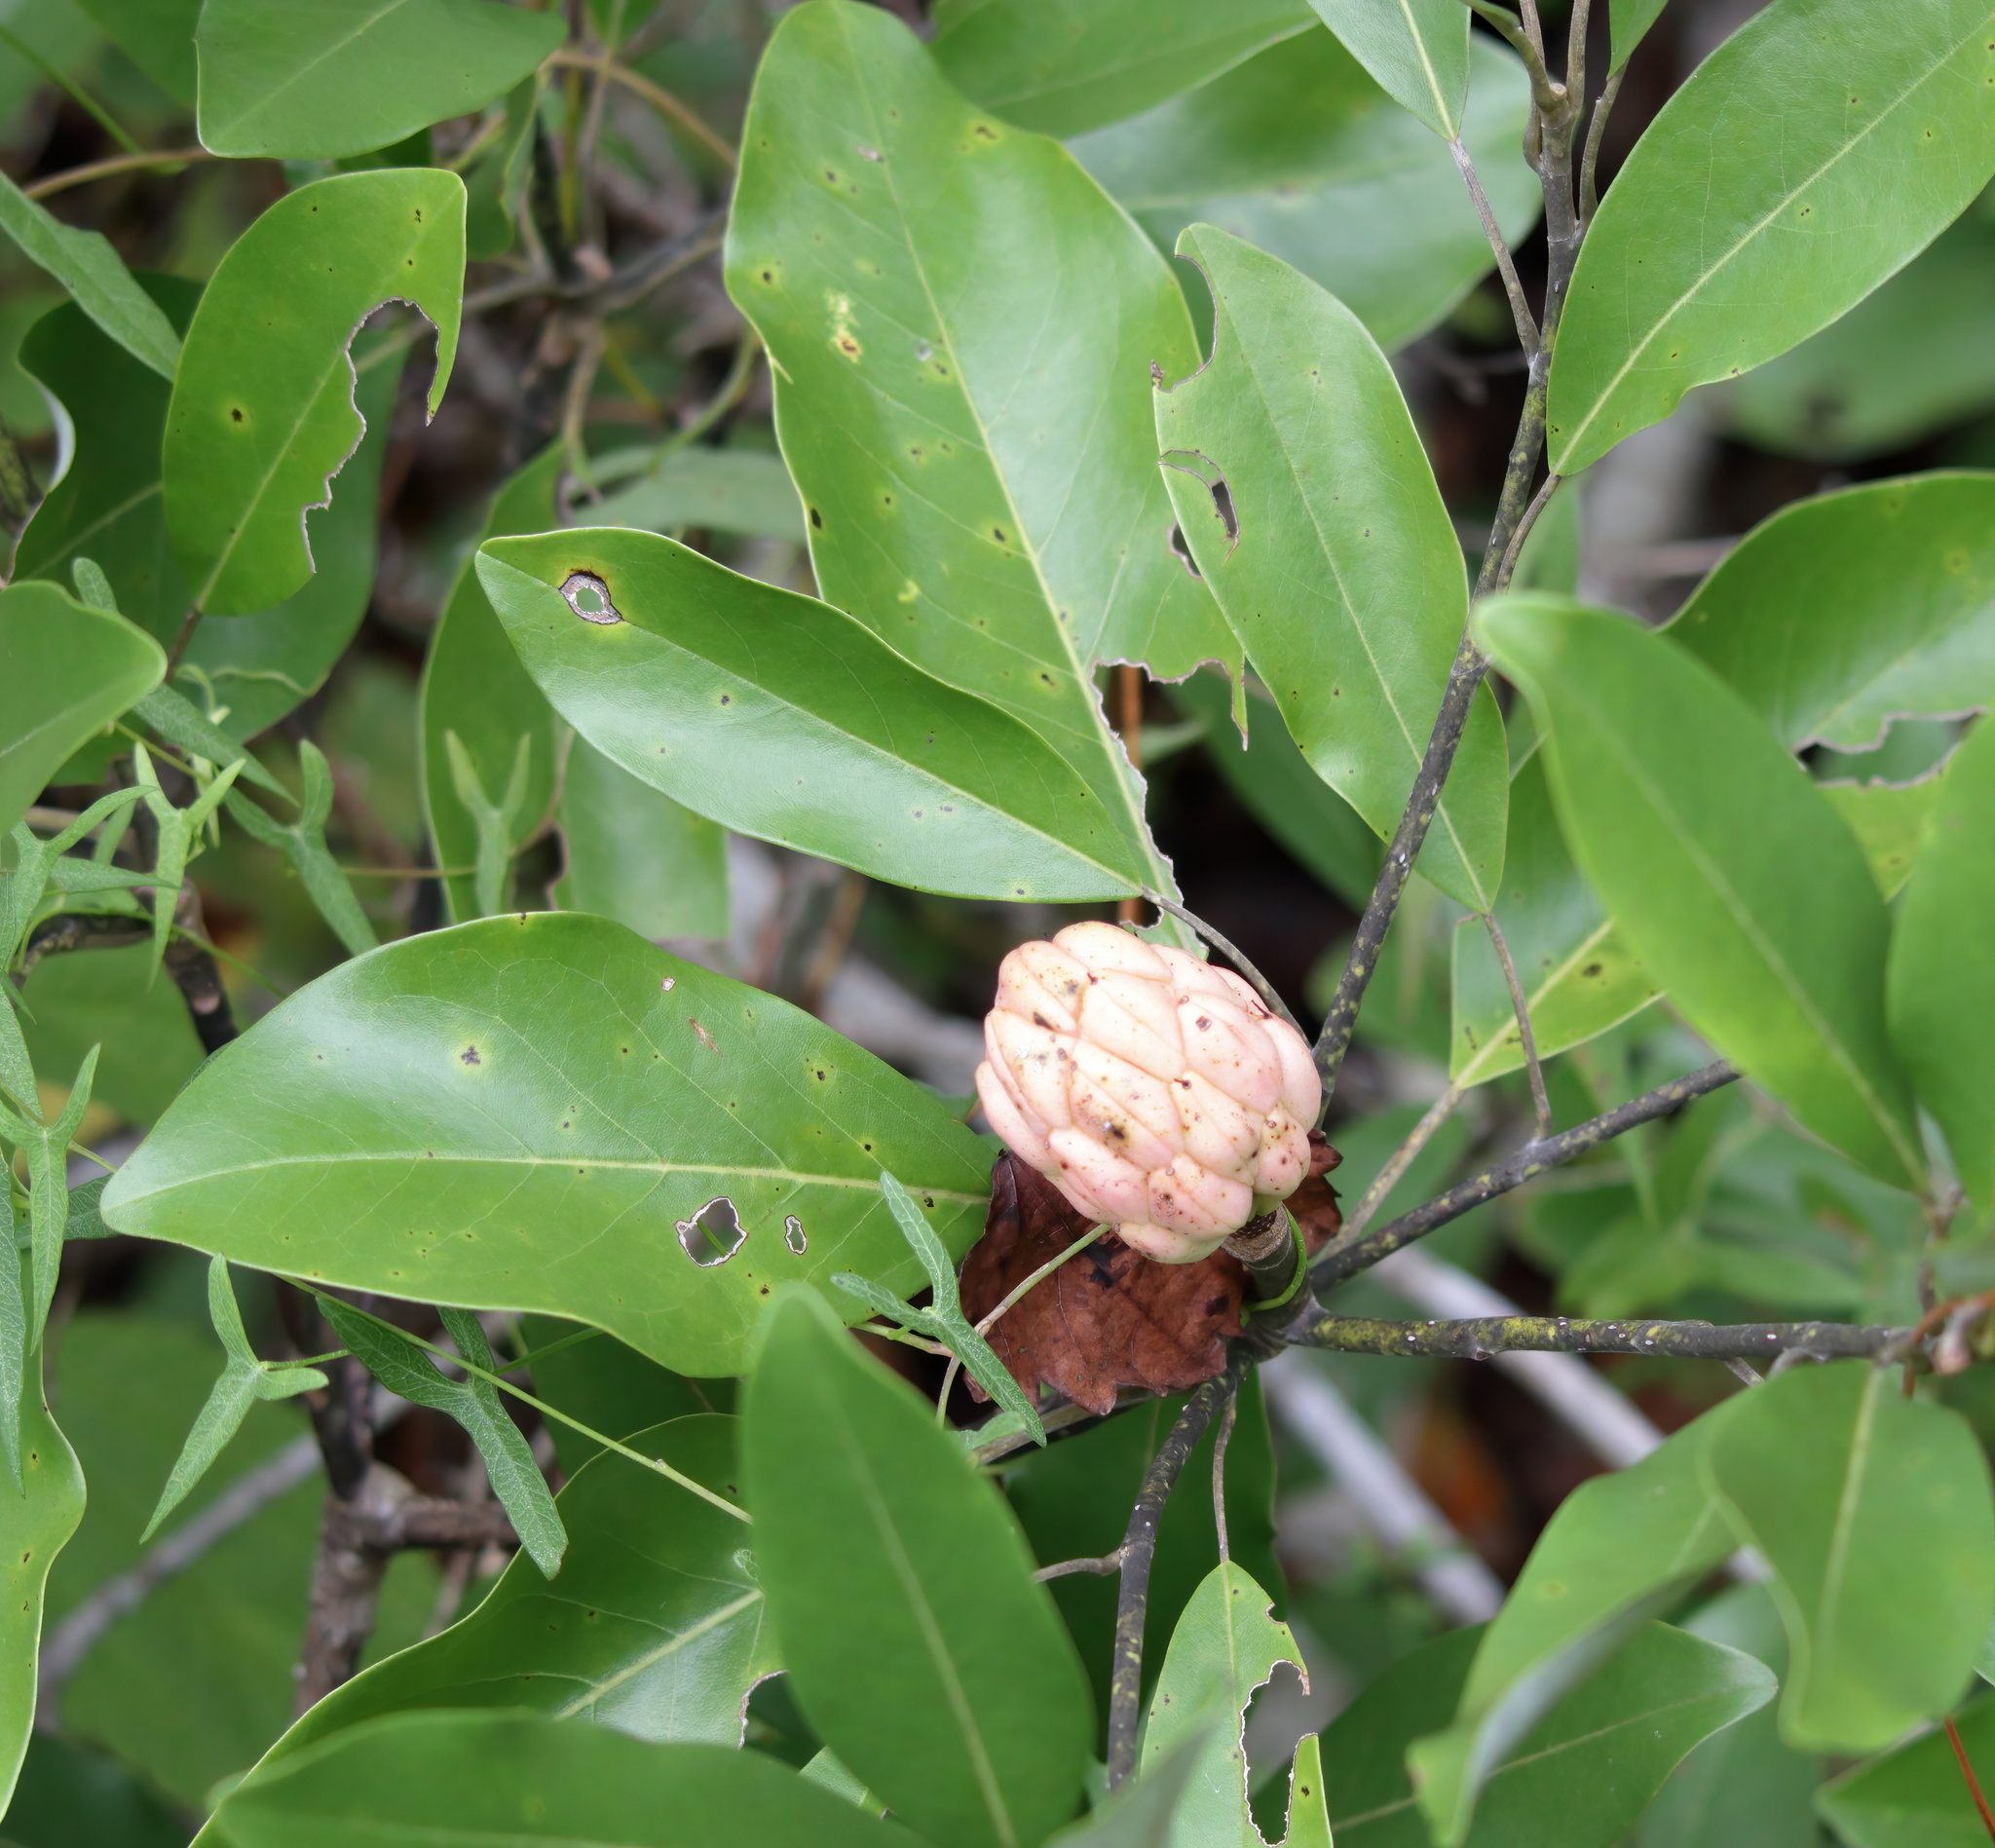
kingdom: Plantae
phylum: Tracheophyta
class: Magnoliopsida
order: Magnoliales
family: Magnoliaceae
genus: Magnolia
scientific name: Magnolia virginiana
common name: Swamp bay
